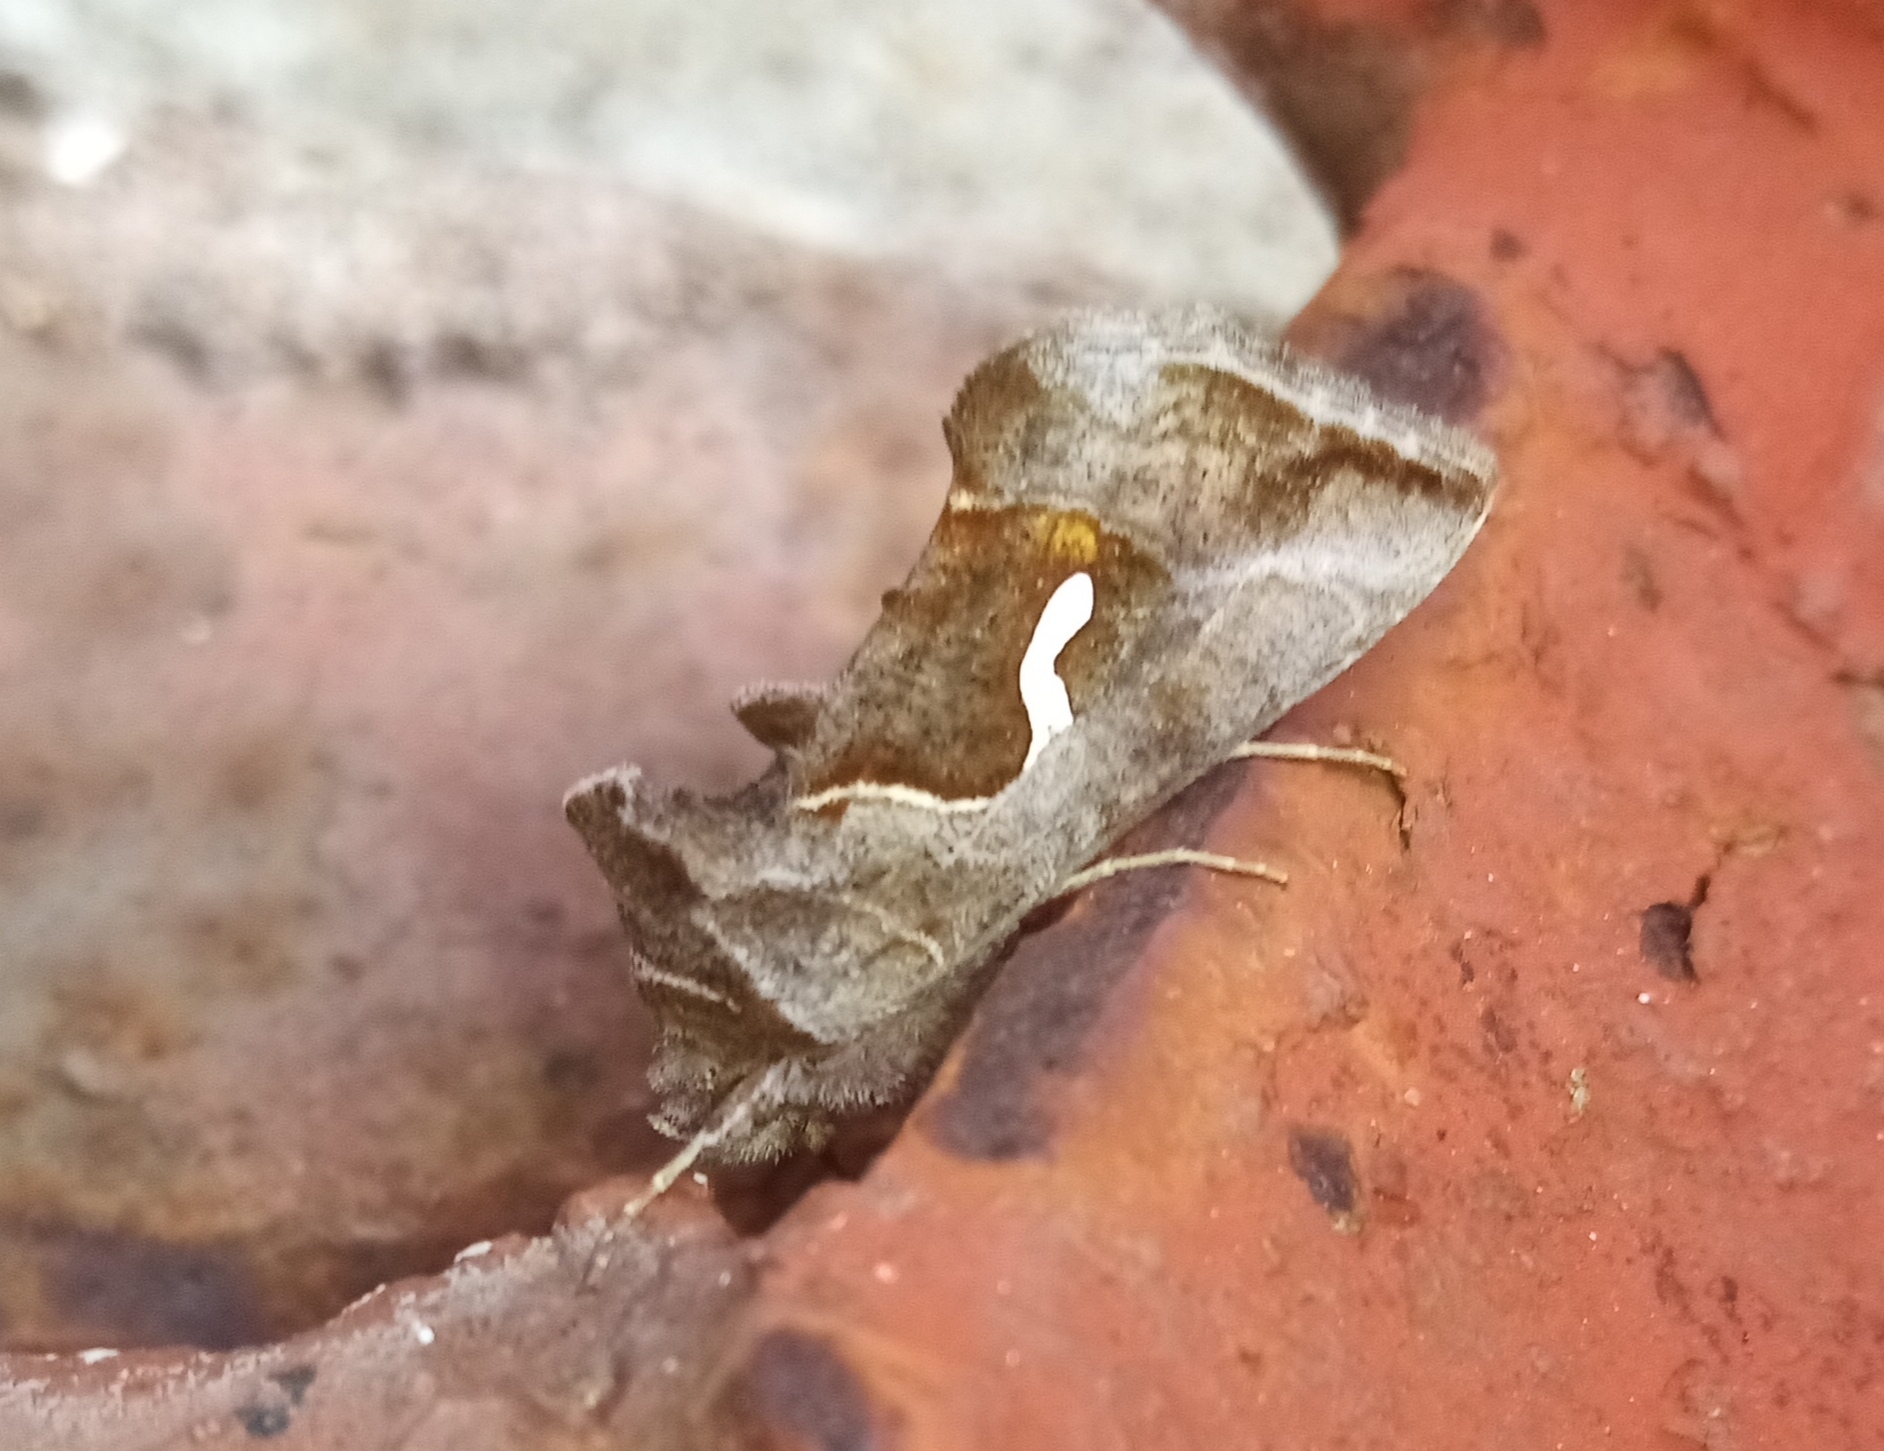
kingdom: Animalia
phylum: Arthropoda
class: Insecta
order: Lepidoptera
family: Noctuidae
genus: Macdunnoughia
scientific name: Macdunnoughia confusa
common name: Dewick's plusia
